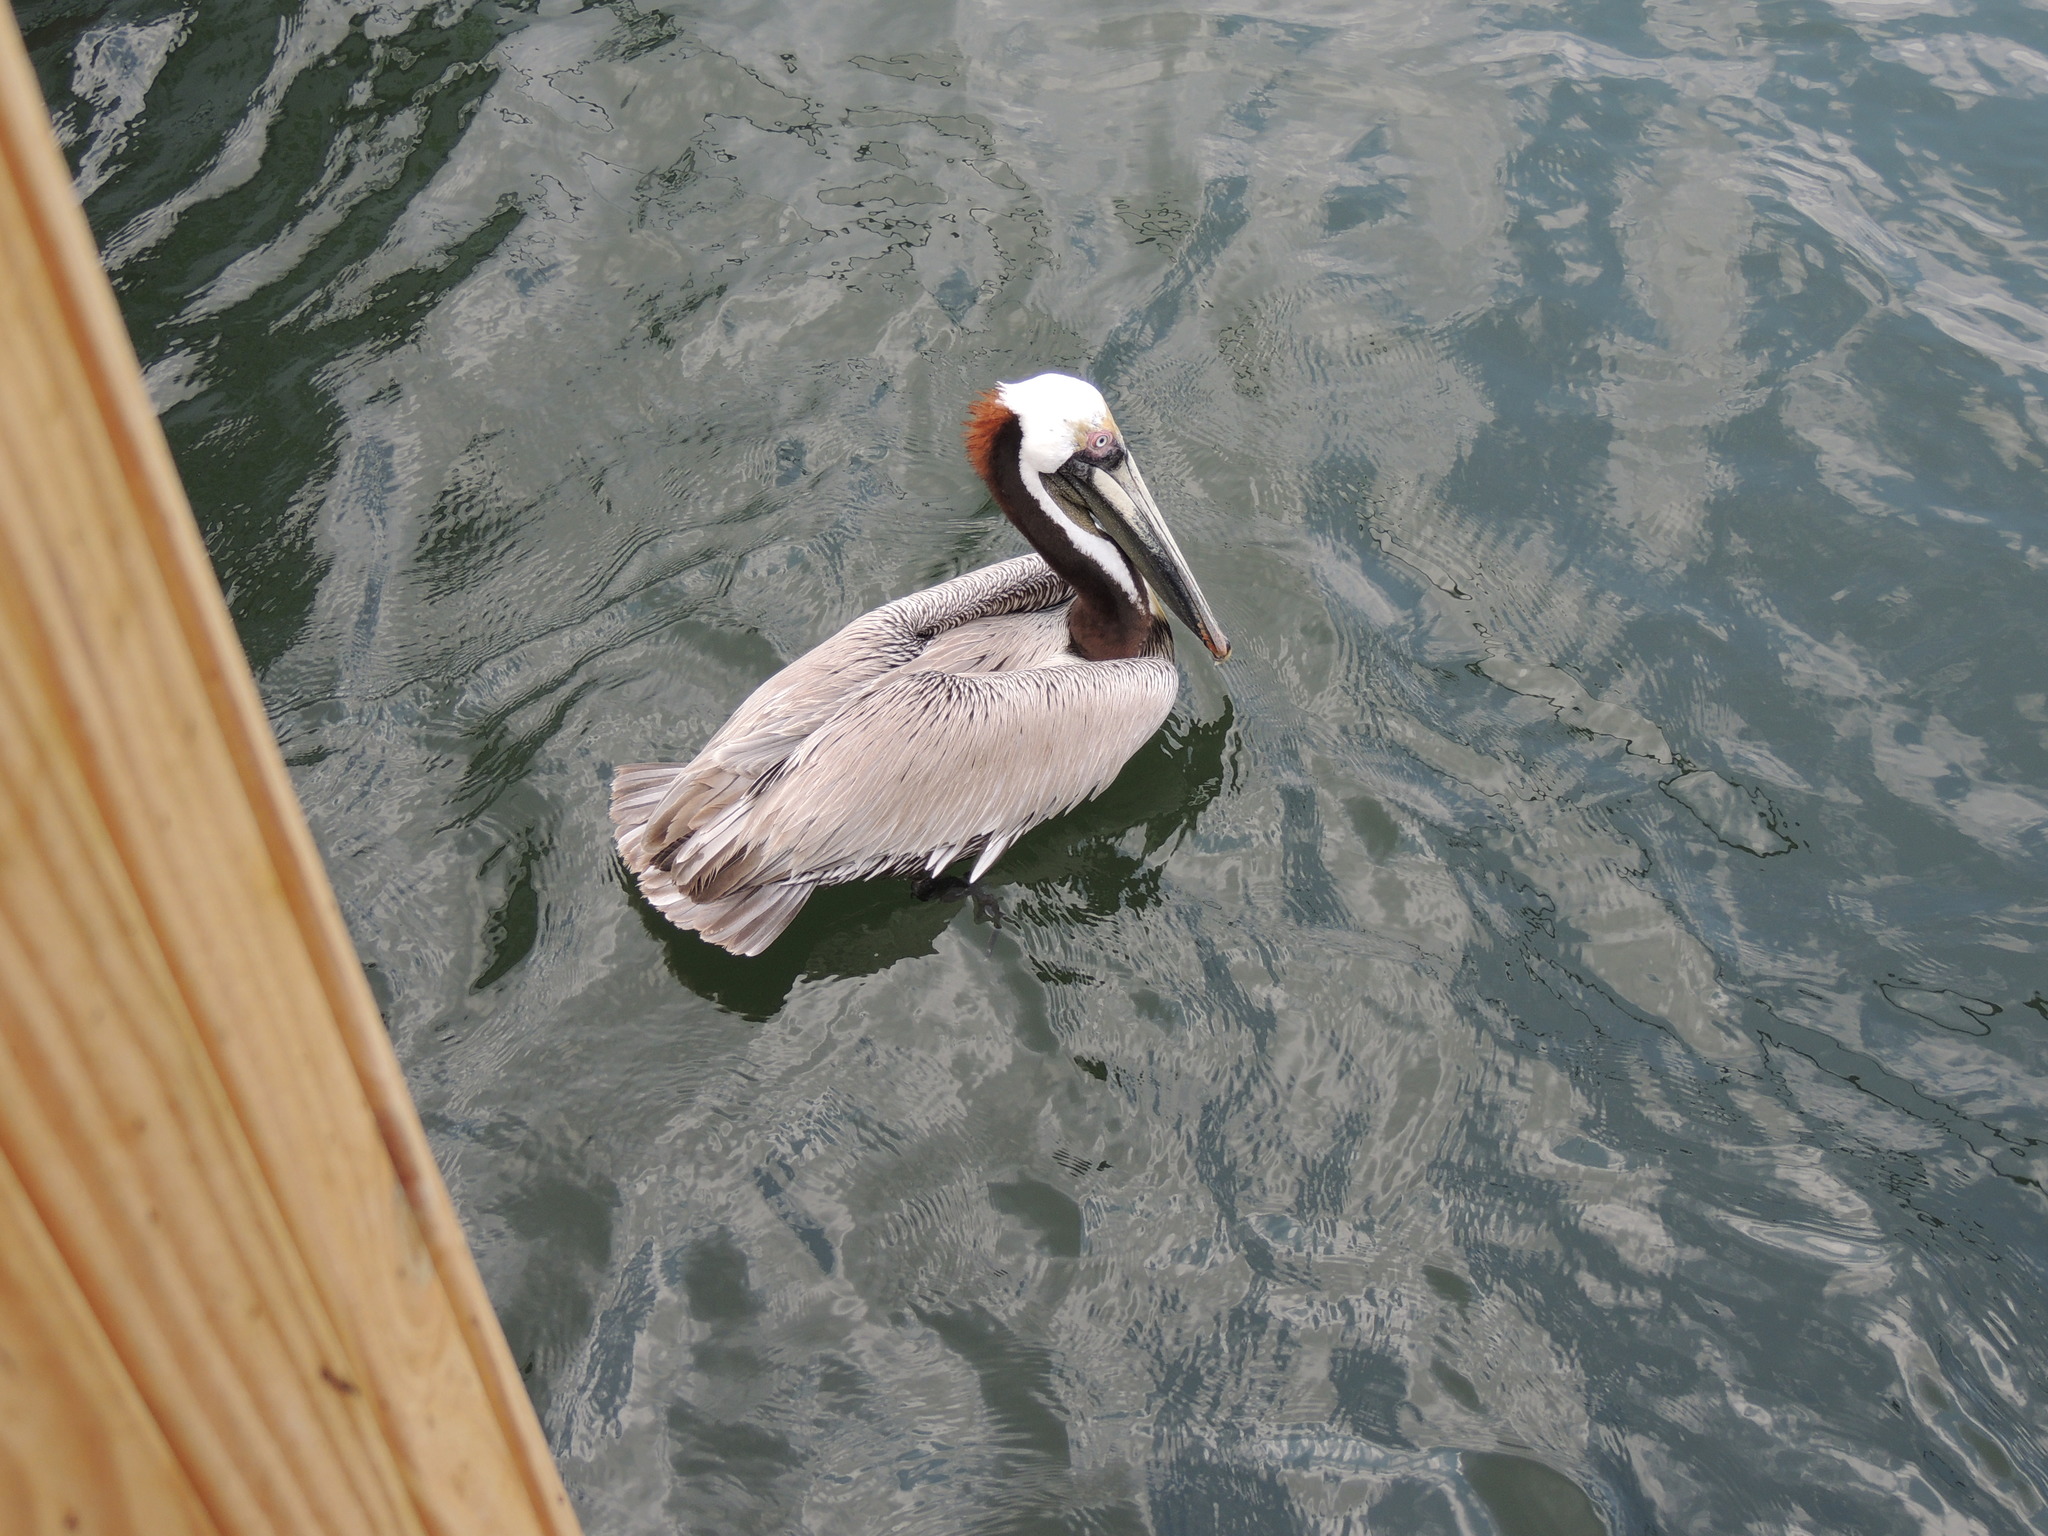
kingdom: Animalia
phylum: Chordata
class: Aves
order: Pelecaniformes
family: Pelecanidae
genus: Pelecanus
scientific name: Pelecanus occidentalis
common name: Brown pelican
